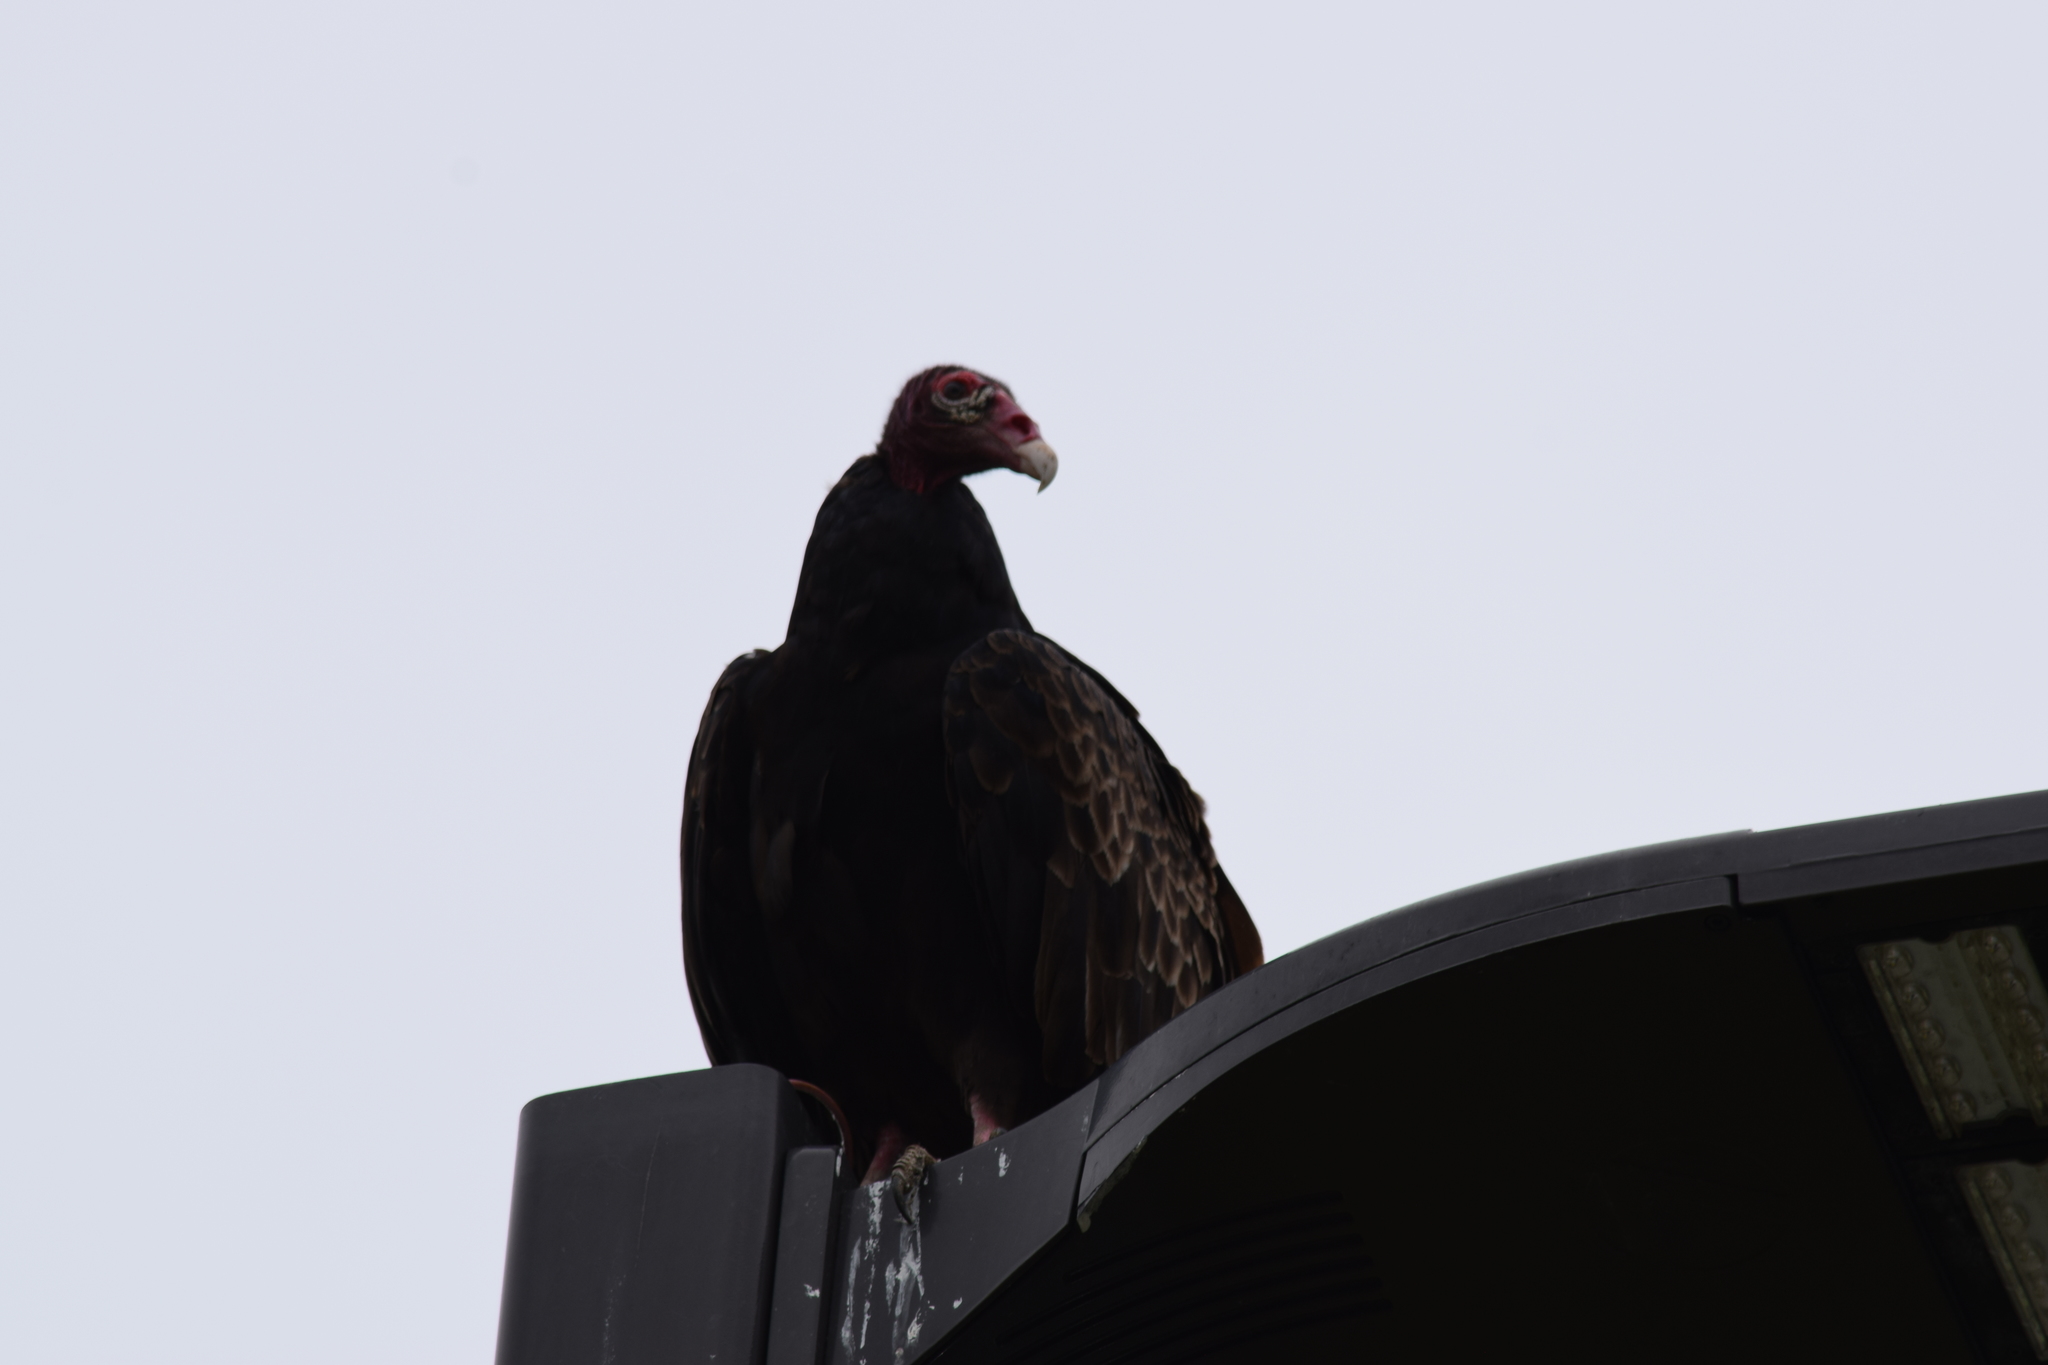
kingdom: Animalia
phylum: Chordata
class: Aves
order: Accipitriformes
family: Cathartidae
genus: Cathartes
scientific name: Cathartes aura
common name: Turkey vulture
